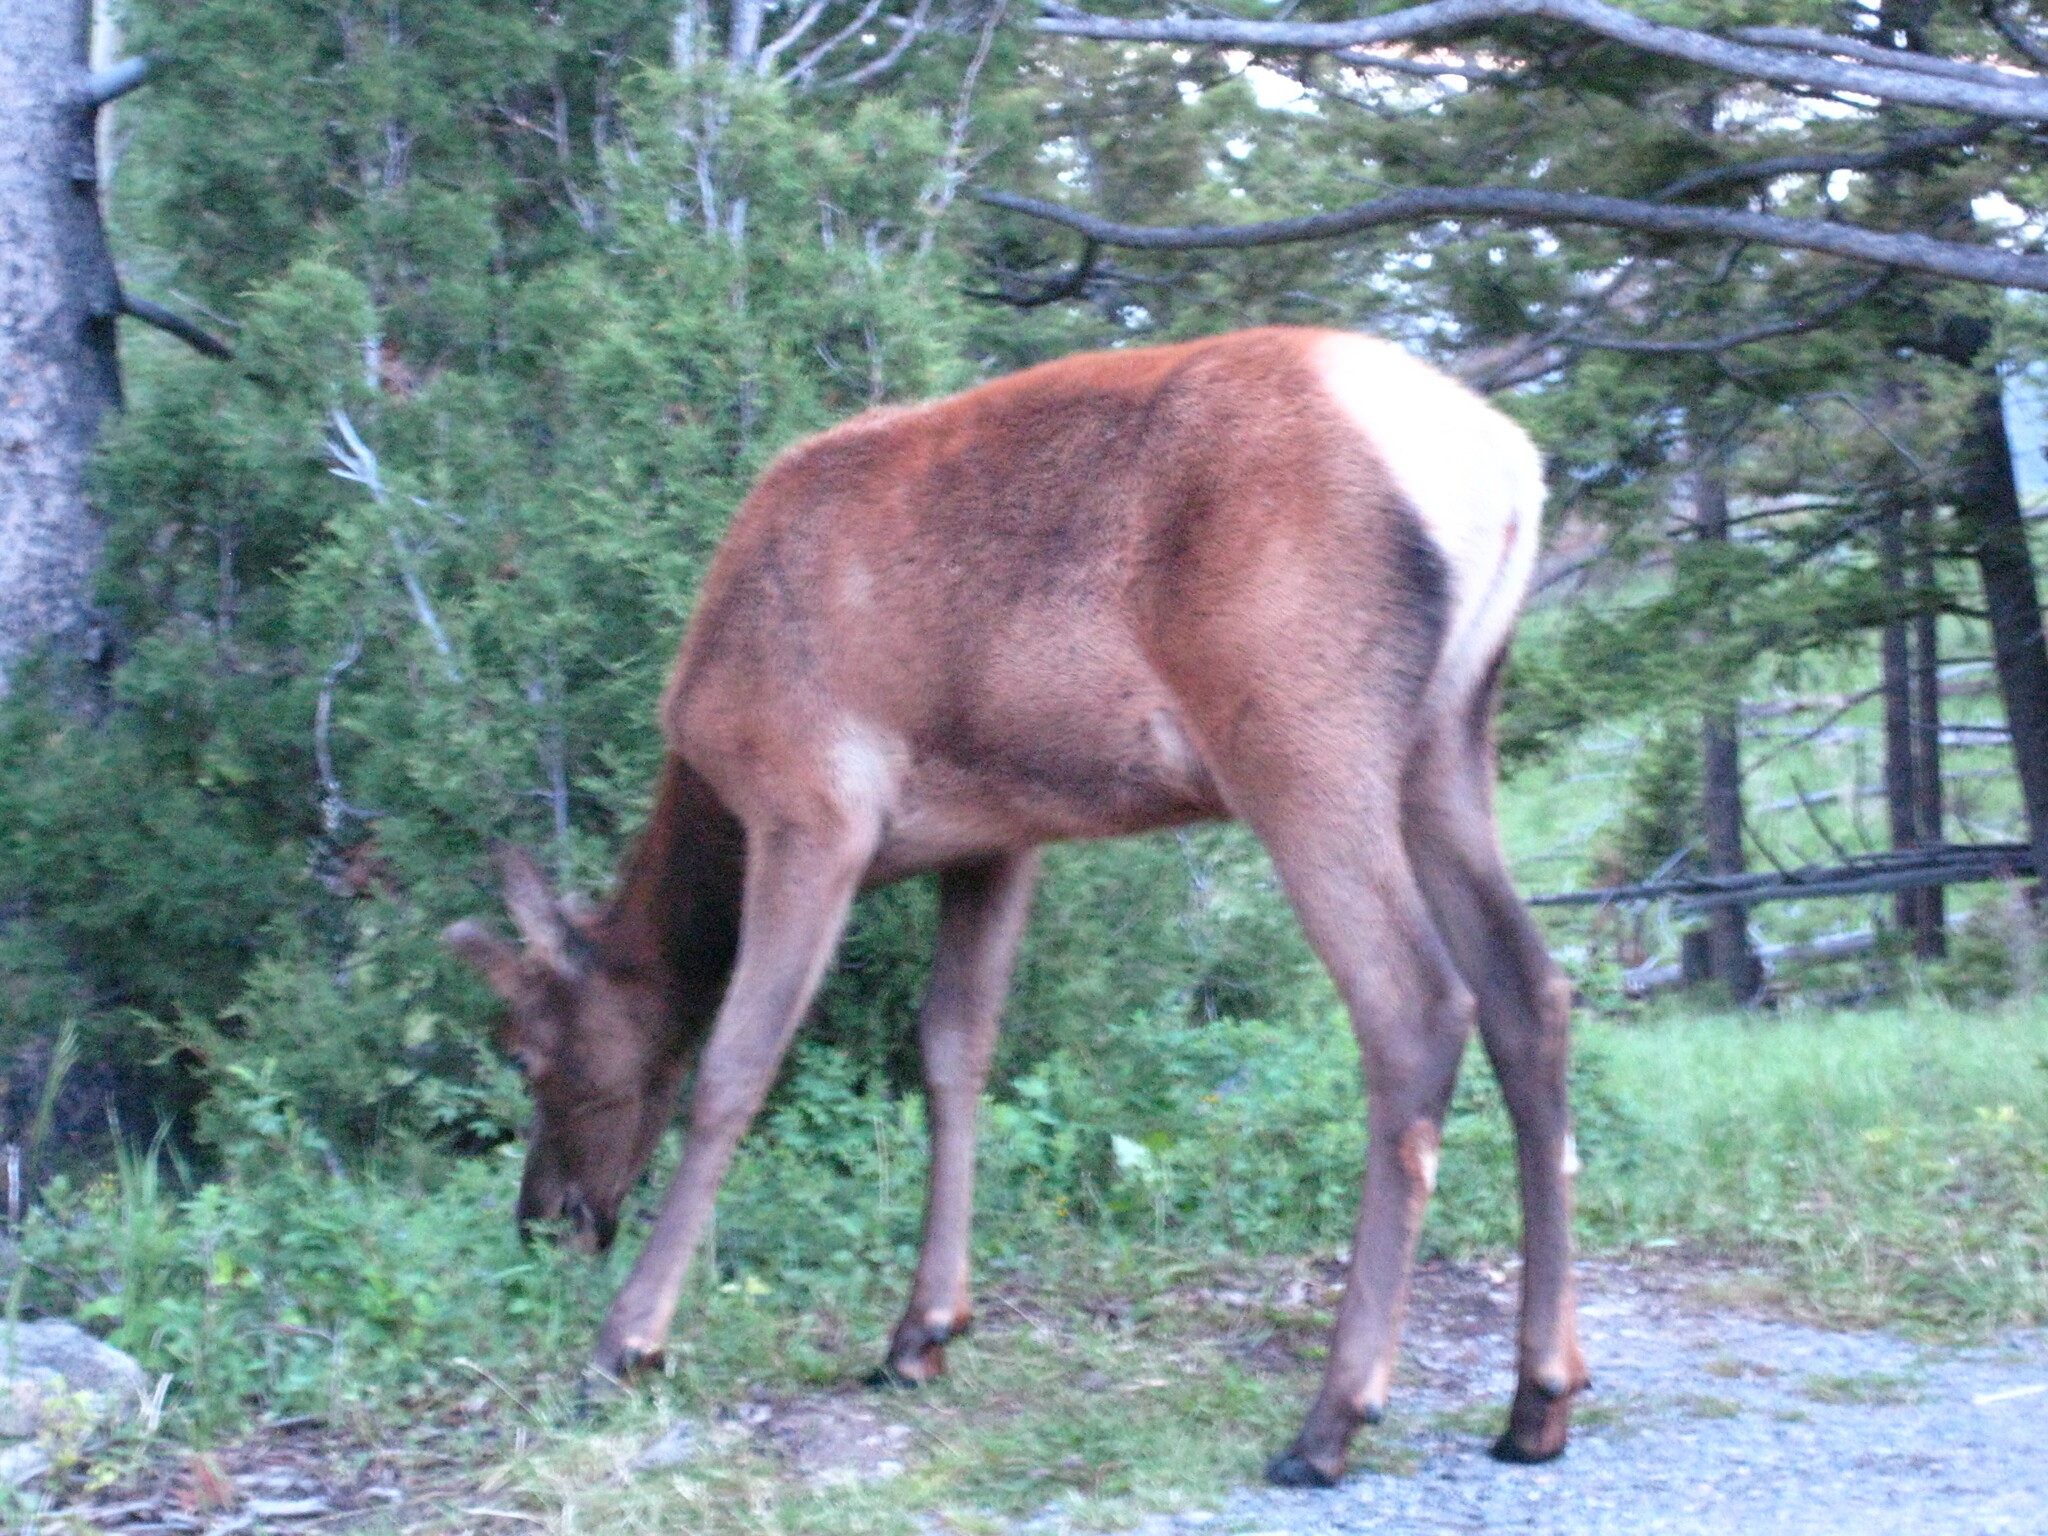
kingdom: Animalia
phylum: Chordata
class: Mammalia
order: Artiodactyla
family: Cervidae
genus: Cervus
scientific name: Cervus elaphus
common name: Red deer
